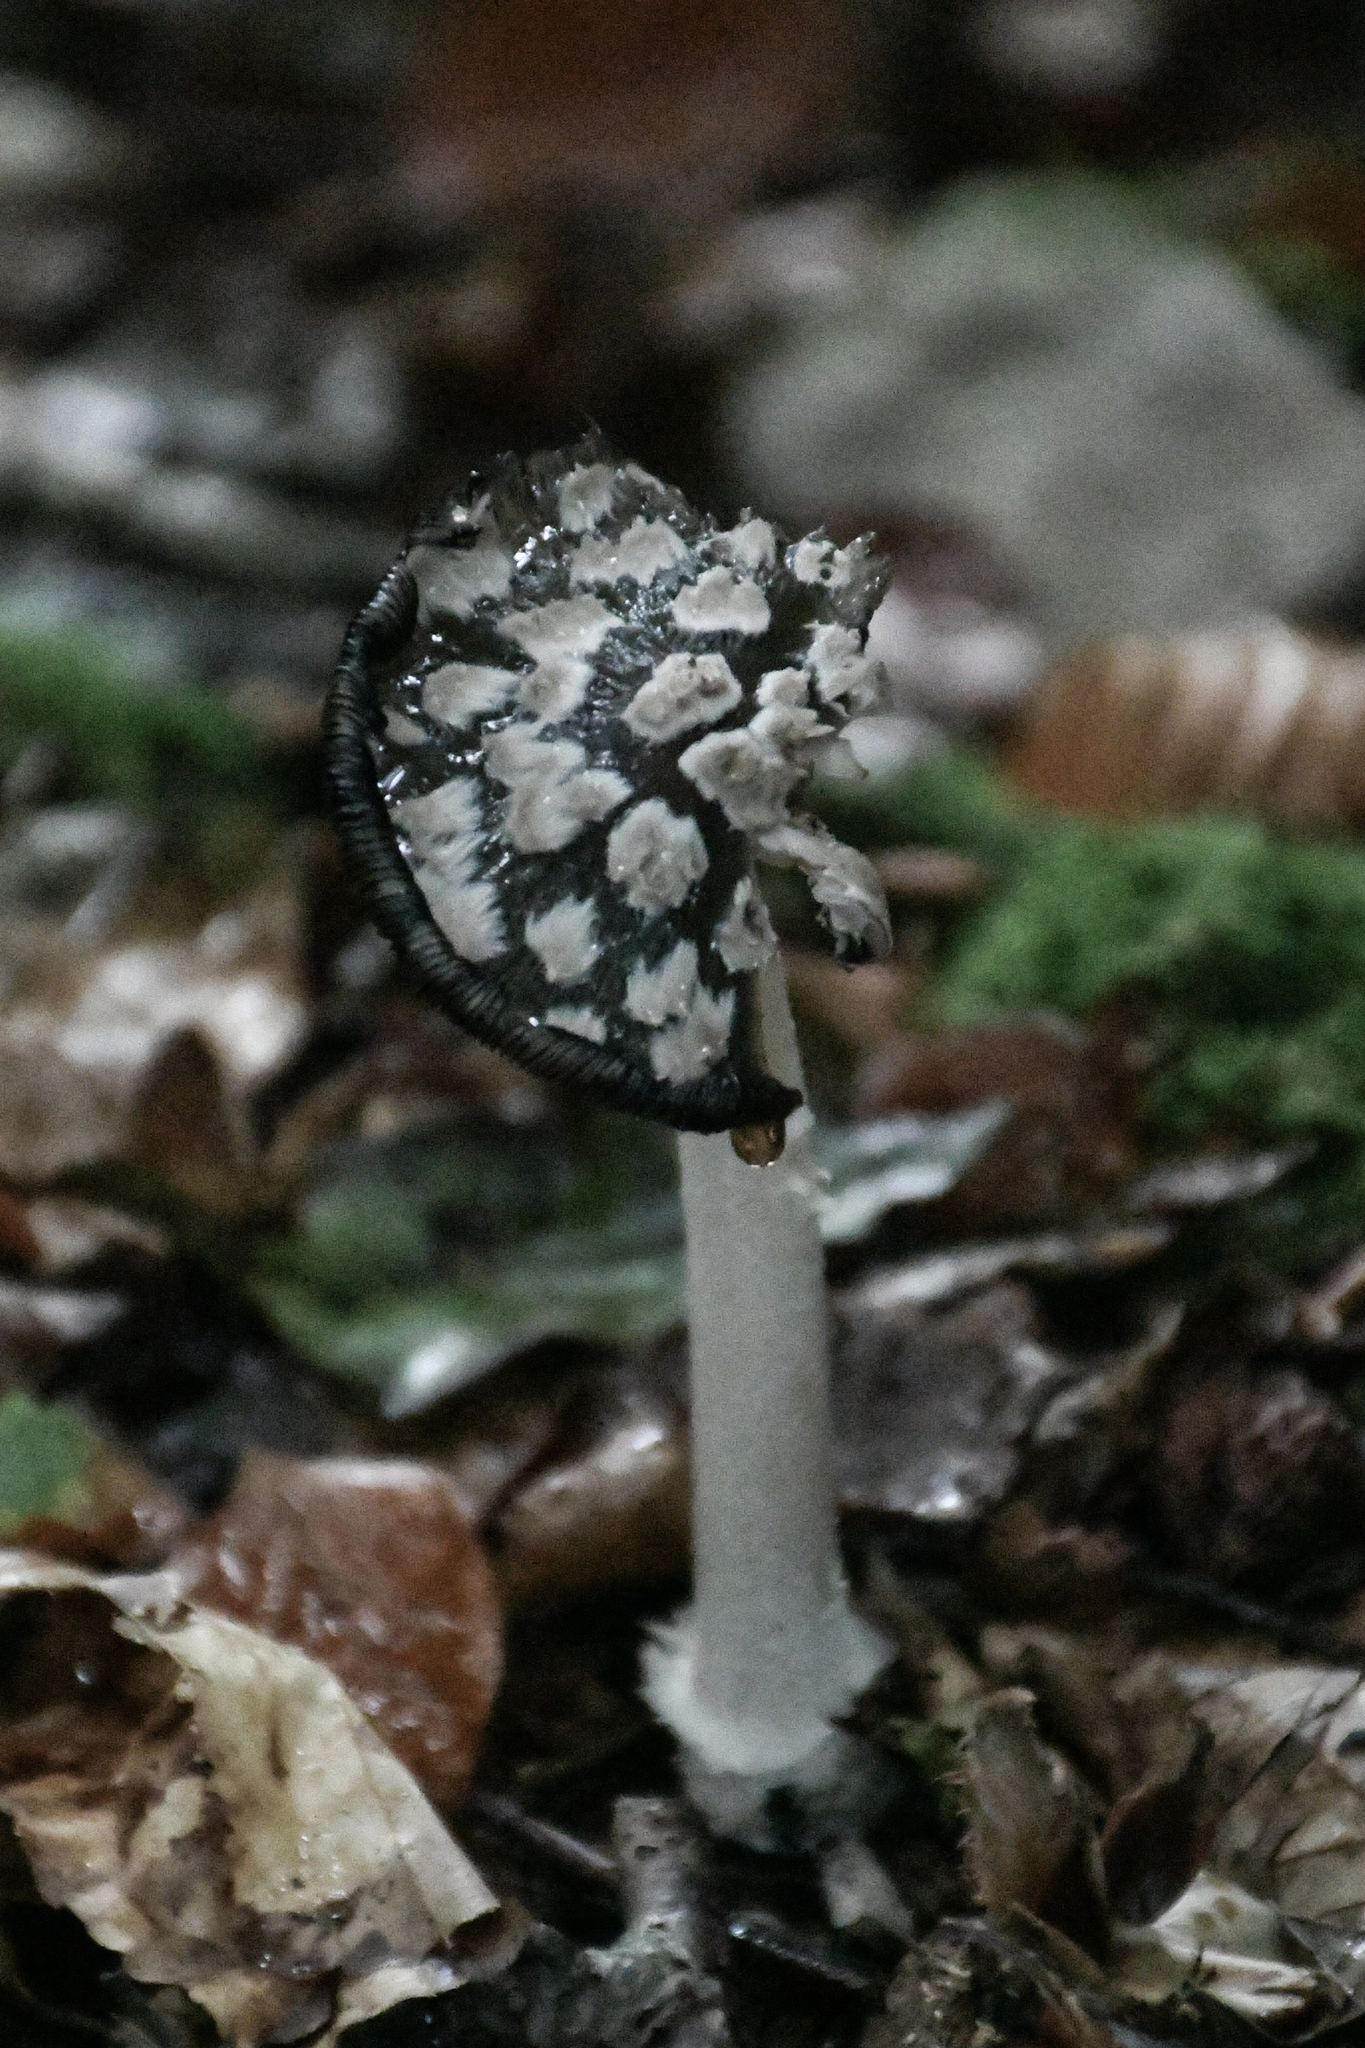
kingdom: Fungi
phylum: Basidiomycota
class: Agaricomycetes
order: Agaricales
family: Psathyrellaceae
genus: Coprinopsis
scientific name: Coprinopsis picacea
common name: Magpie inkcap
